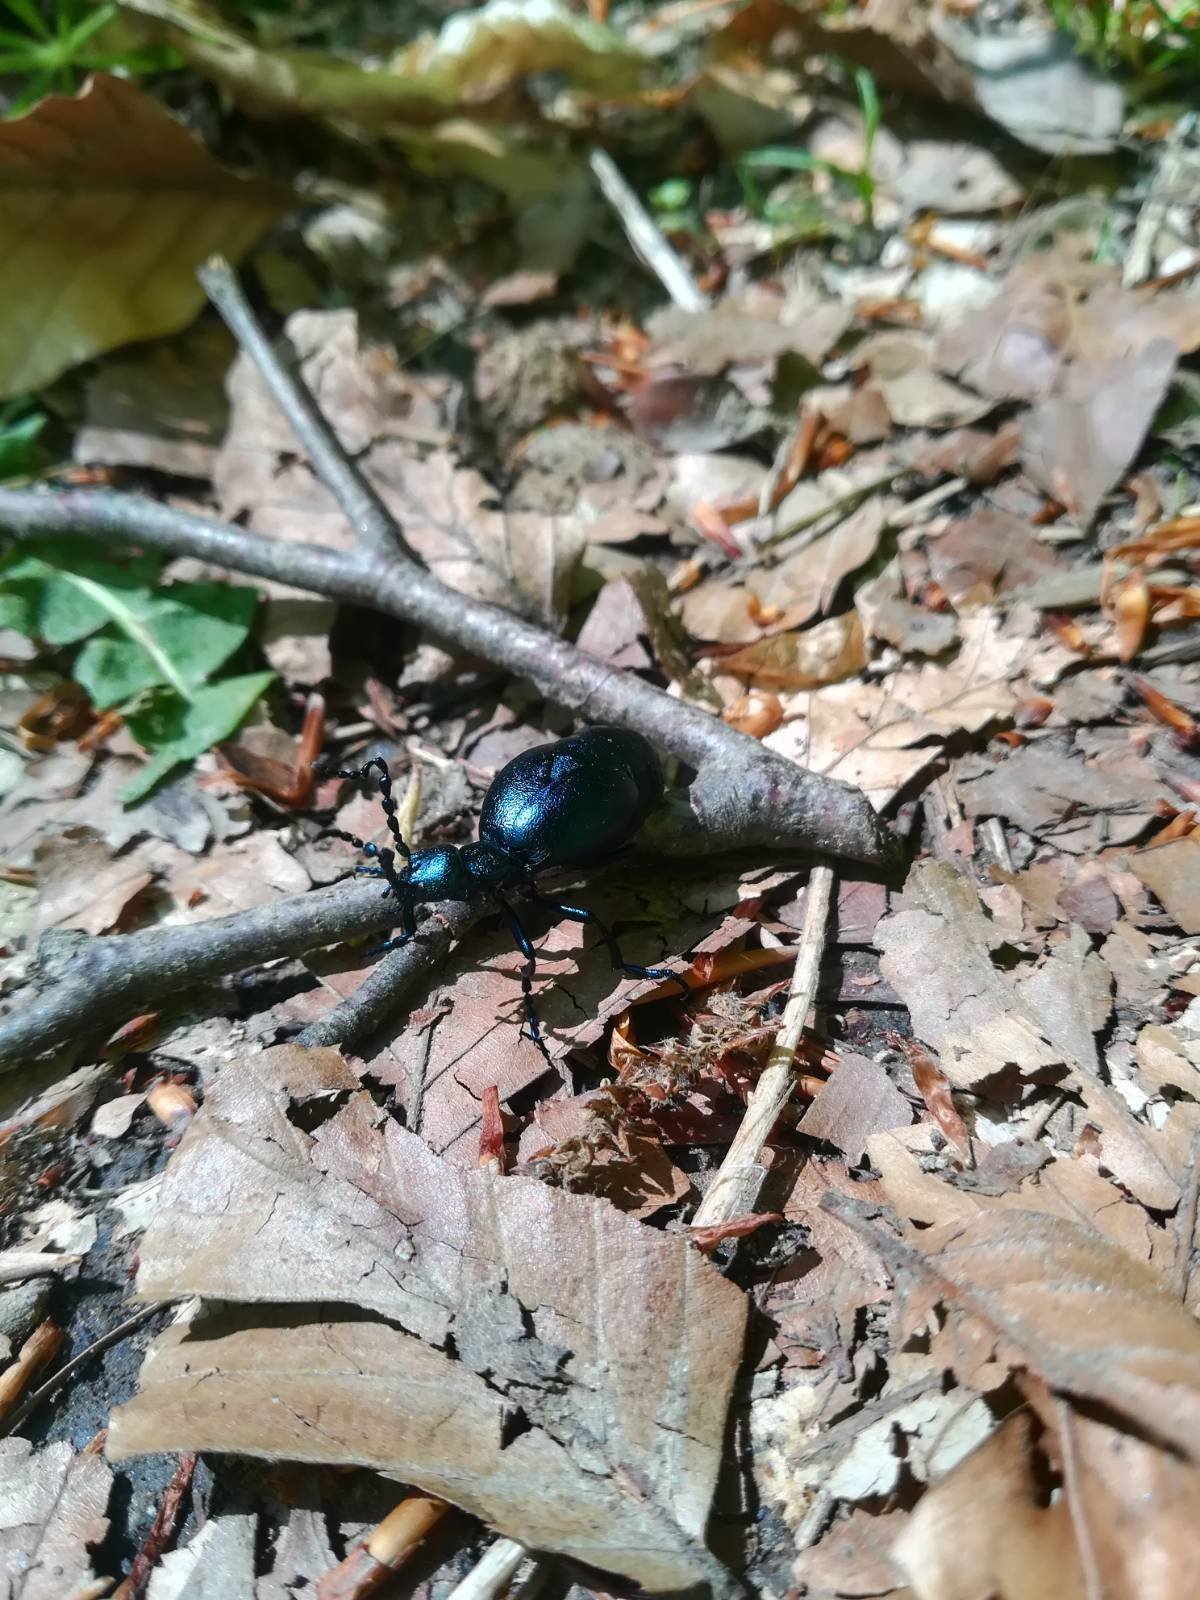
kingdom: Animalia
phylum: Arthropoda
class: Insecta
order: Coleoptera
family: Meloidae
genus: Meloe
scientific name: Meloe violaceus
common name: Violet oil-beetle
